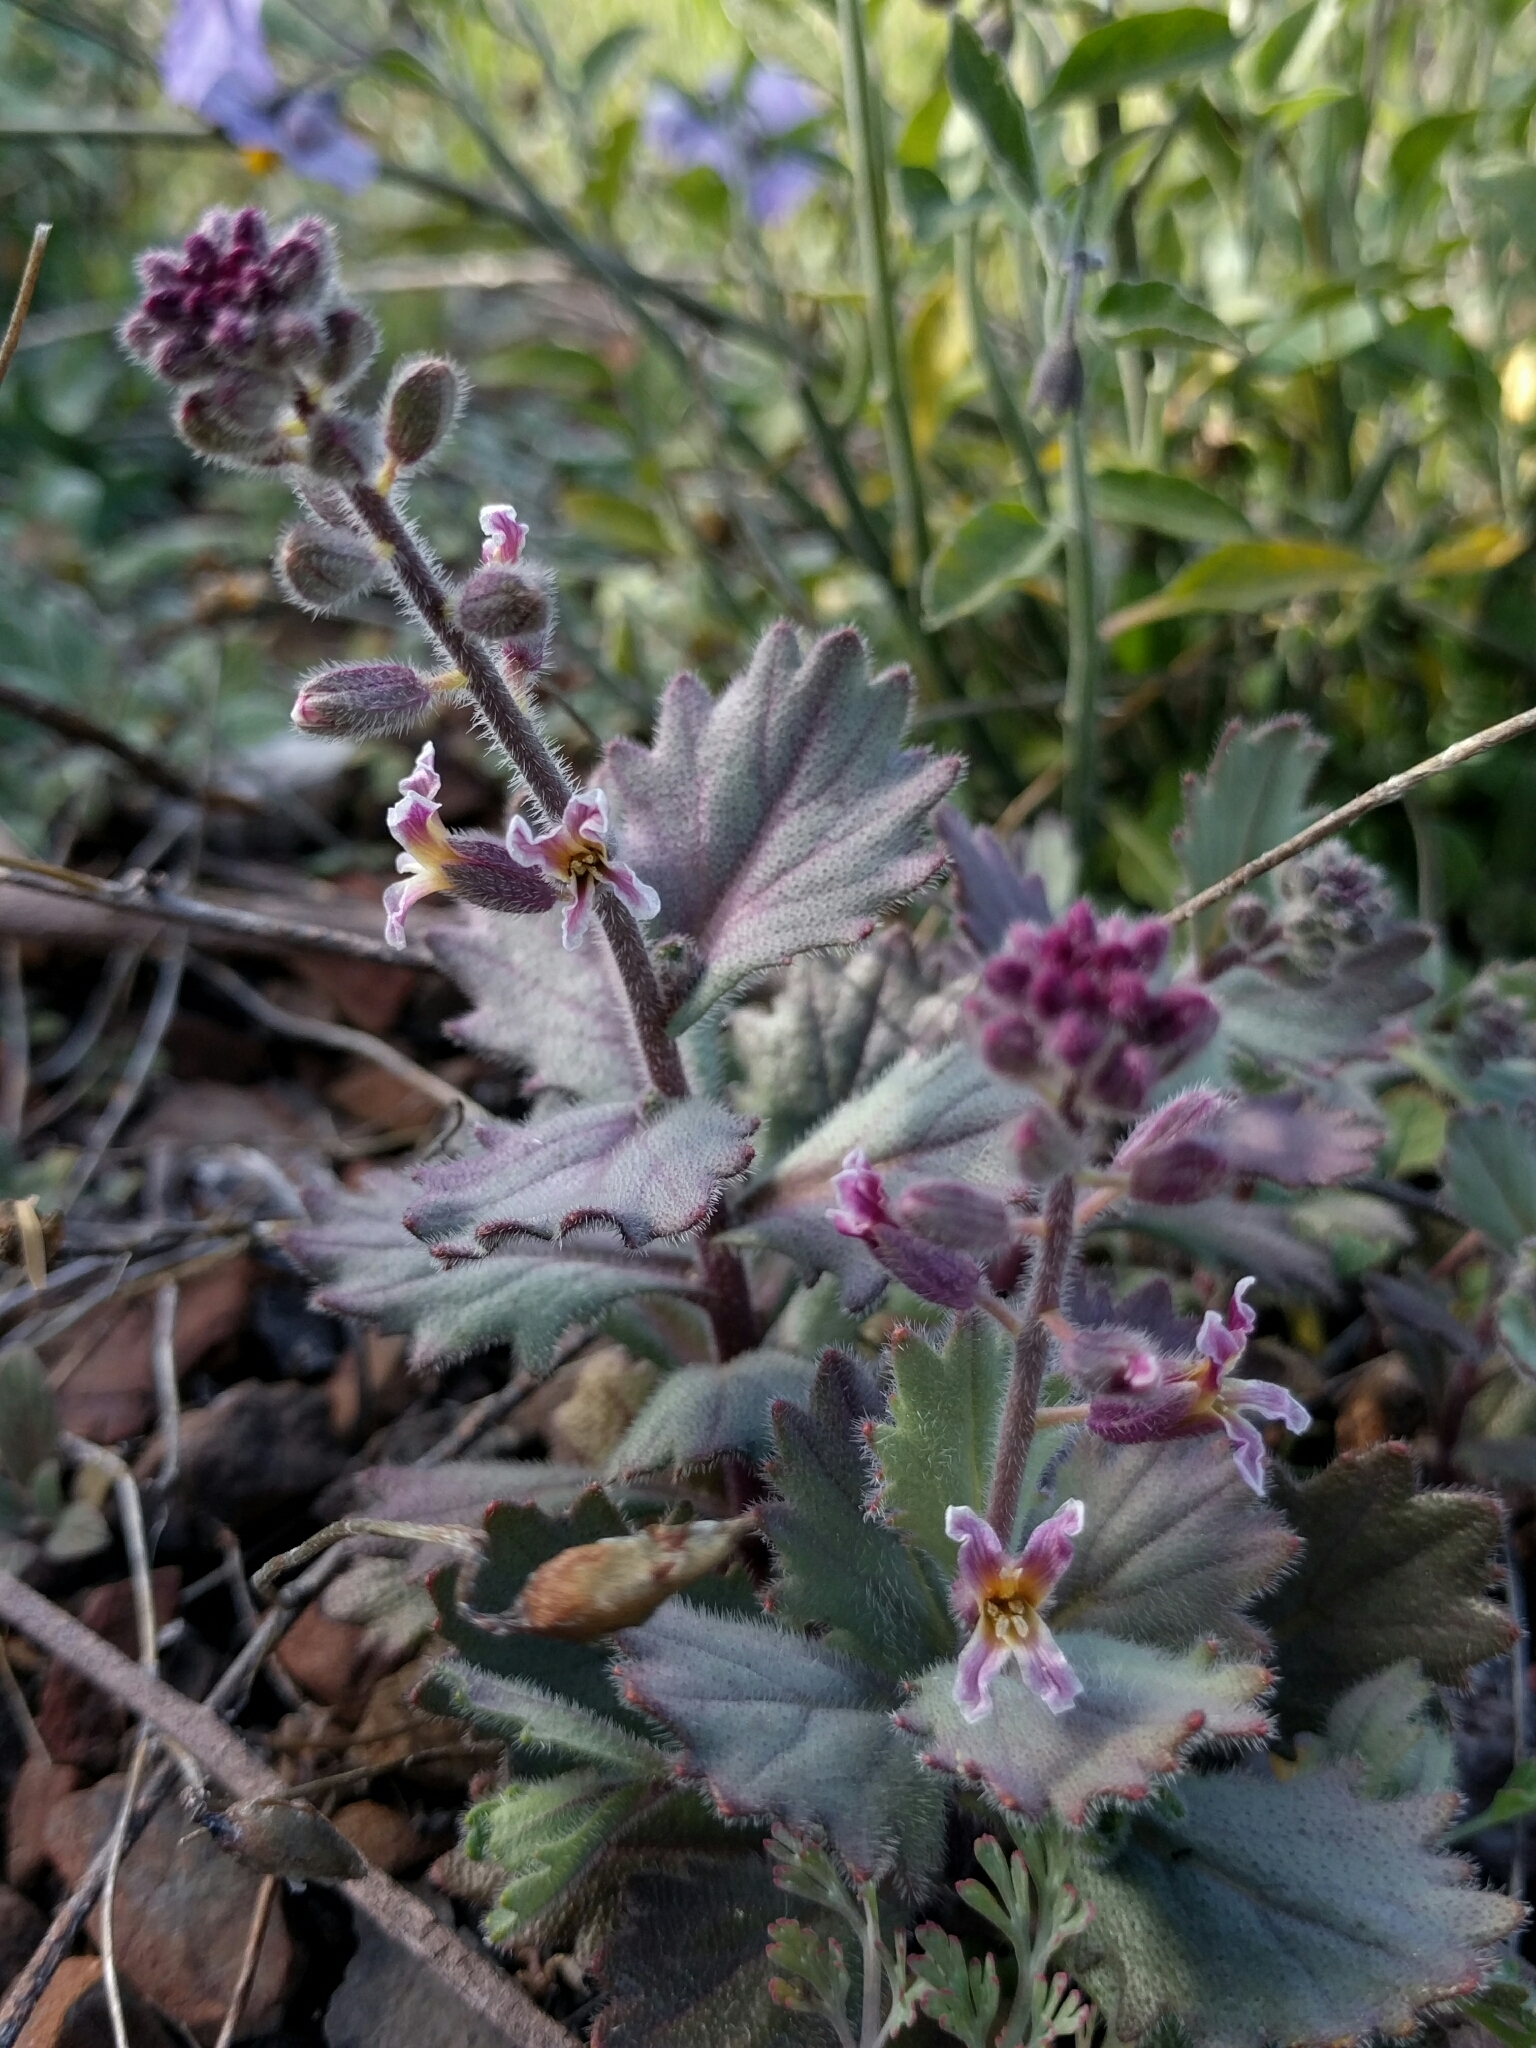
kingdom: Plantae
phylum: Tracheophyta
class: Magnoliopsida
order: Brassicales
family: Brassicaceae
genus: Streptanthus
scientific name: Streptanthus hispidus
